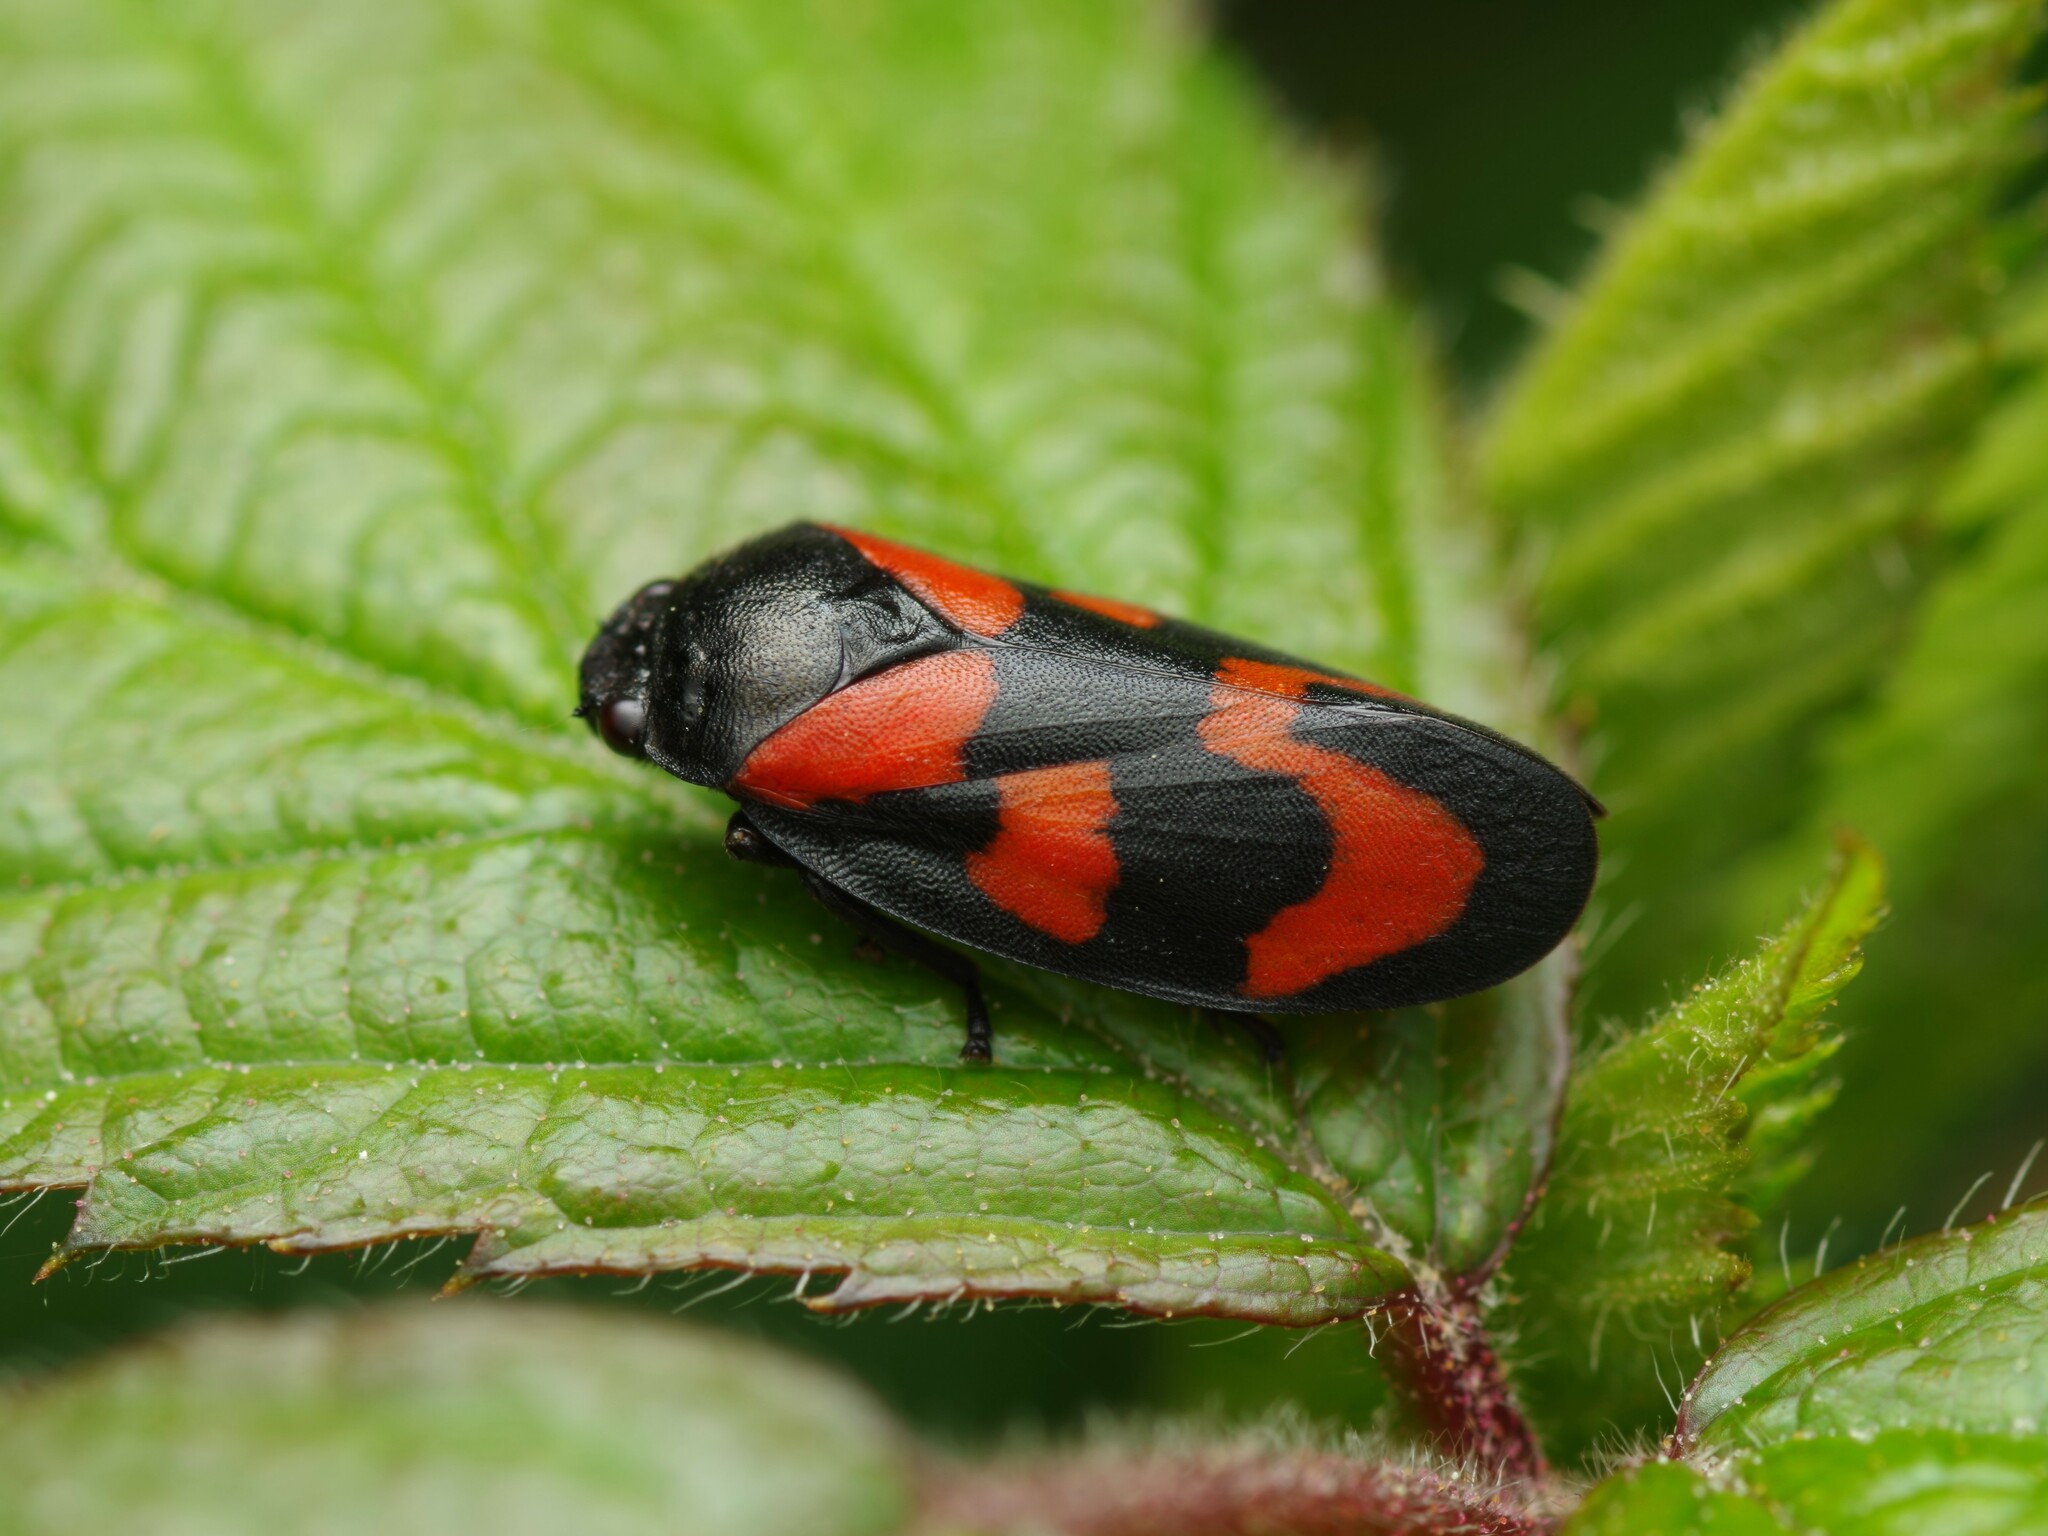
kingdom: Animalia
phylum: Arthropoda
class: Insecta
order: Hemiptera
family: Cercopidae
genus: Cercopis
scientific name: Cercopis vulnerata
